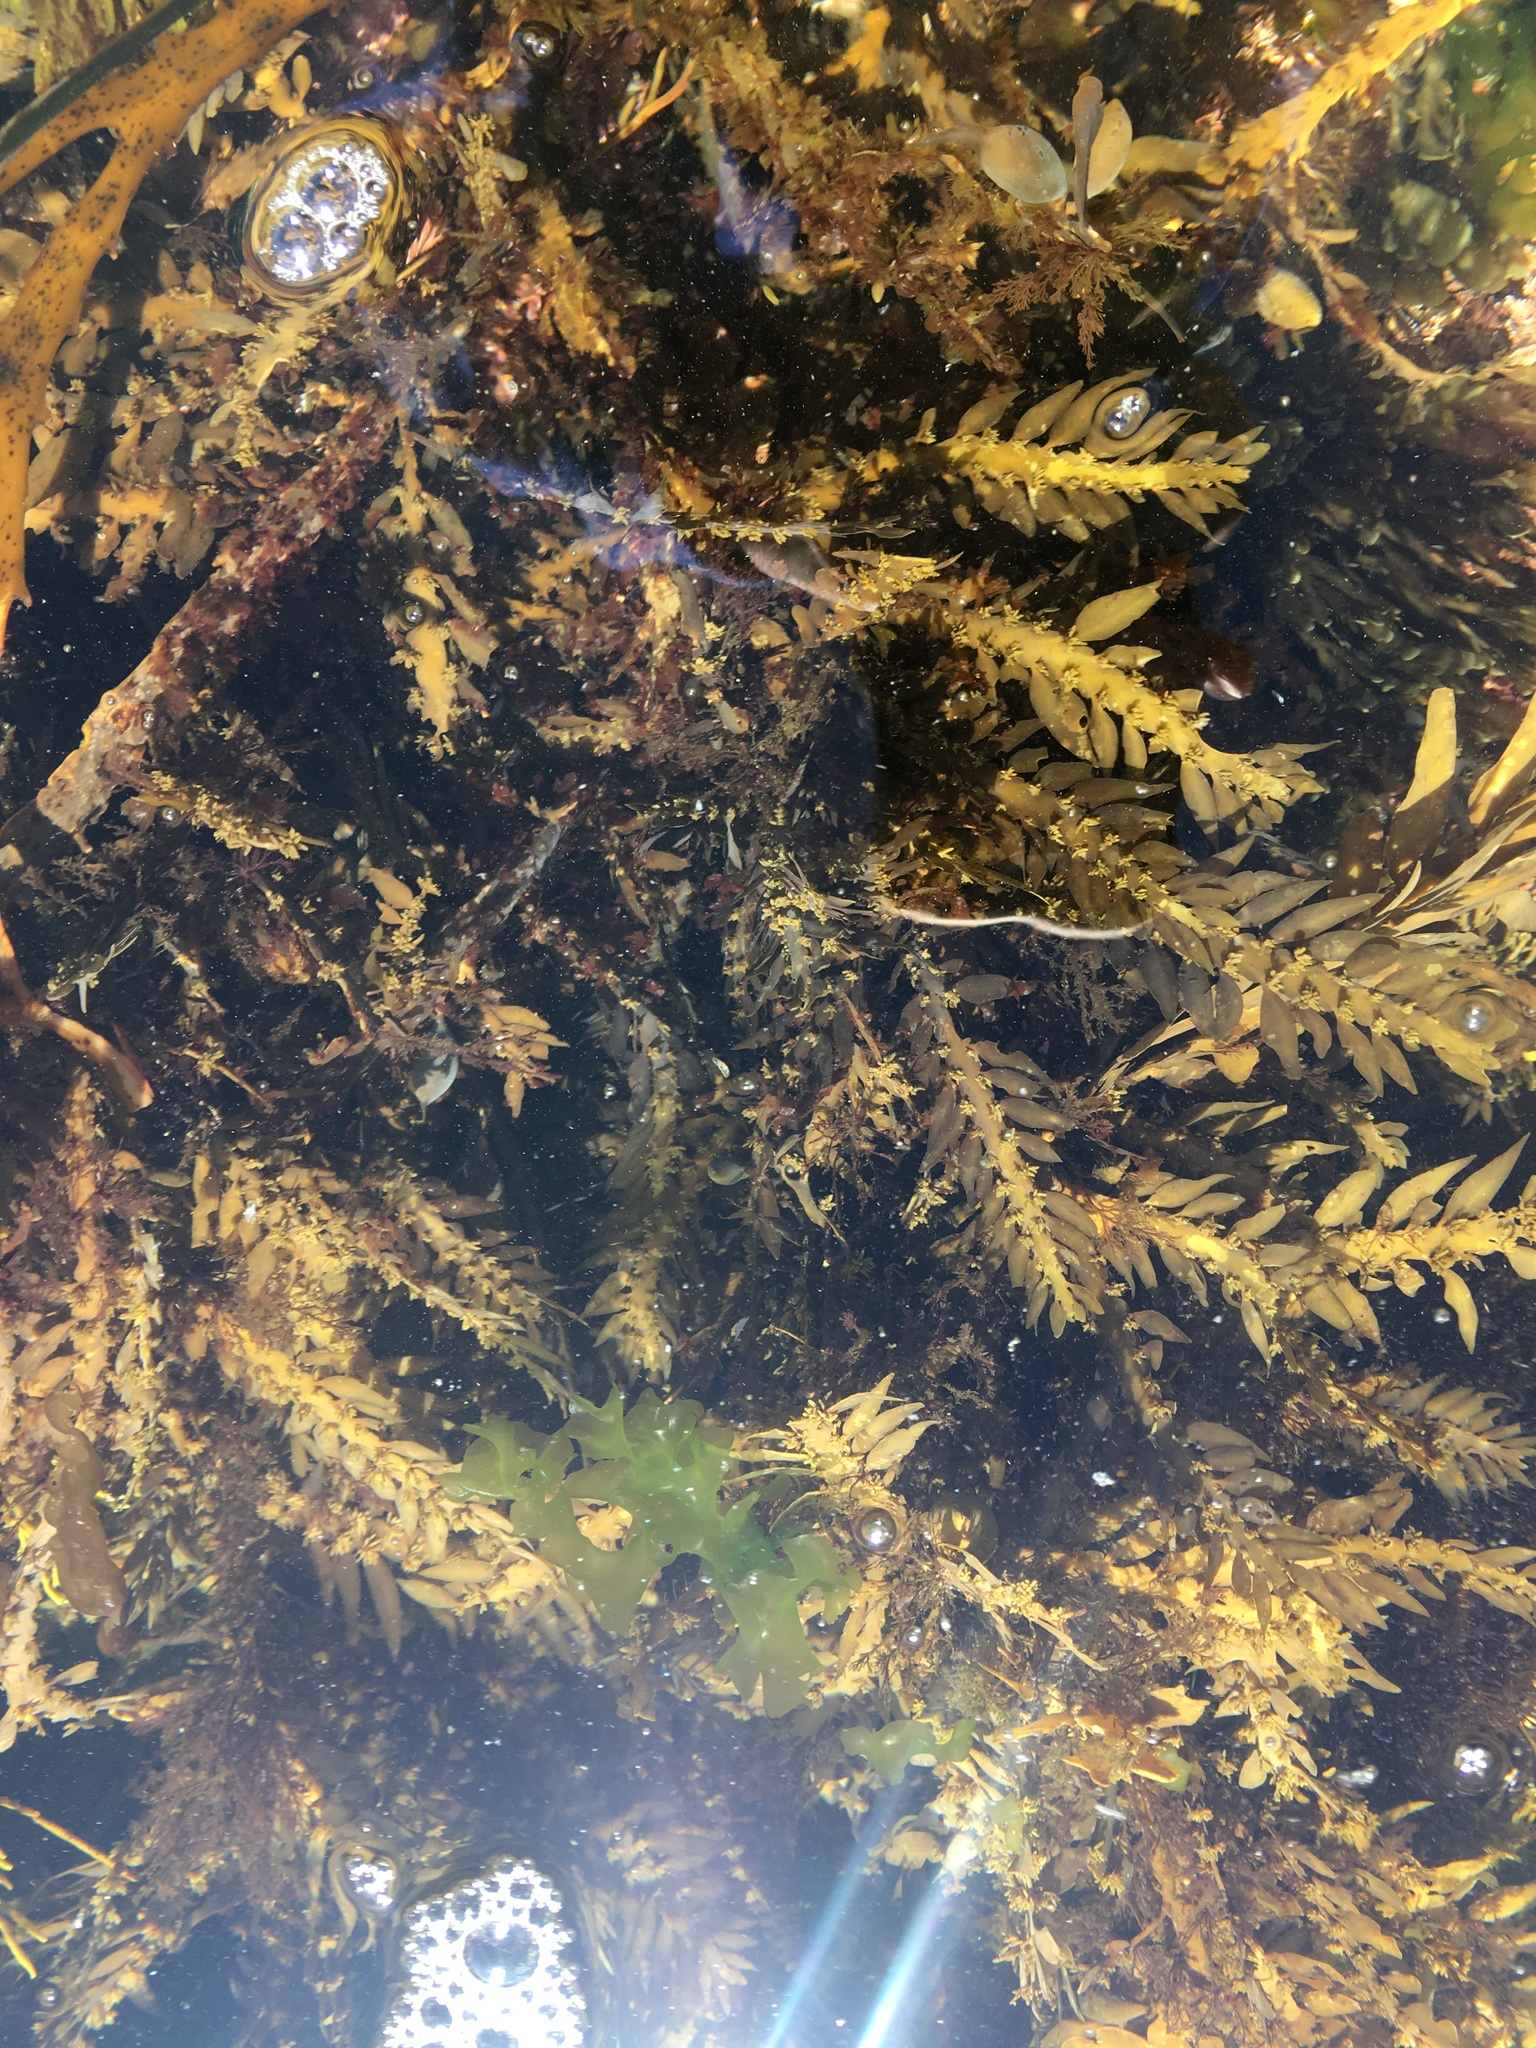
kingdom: Chromista
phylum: Ochrophyta
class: Phaeophyceae
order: Fucales
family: Sargassaceae
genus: Carpophyllum
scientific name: Carpophyllum maschalocarpum
